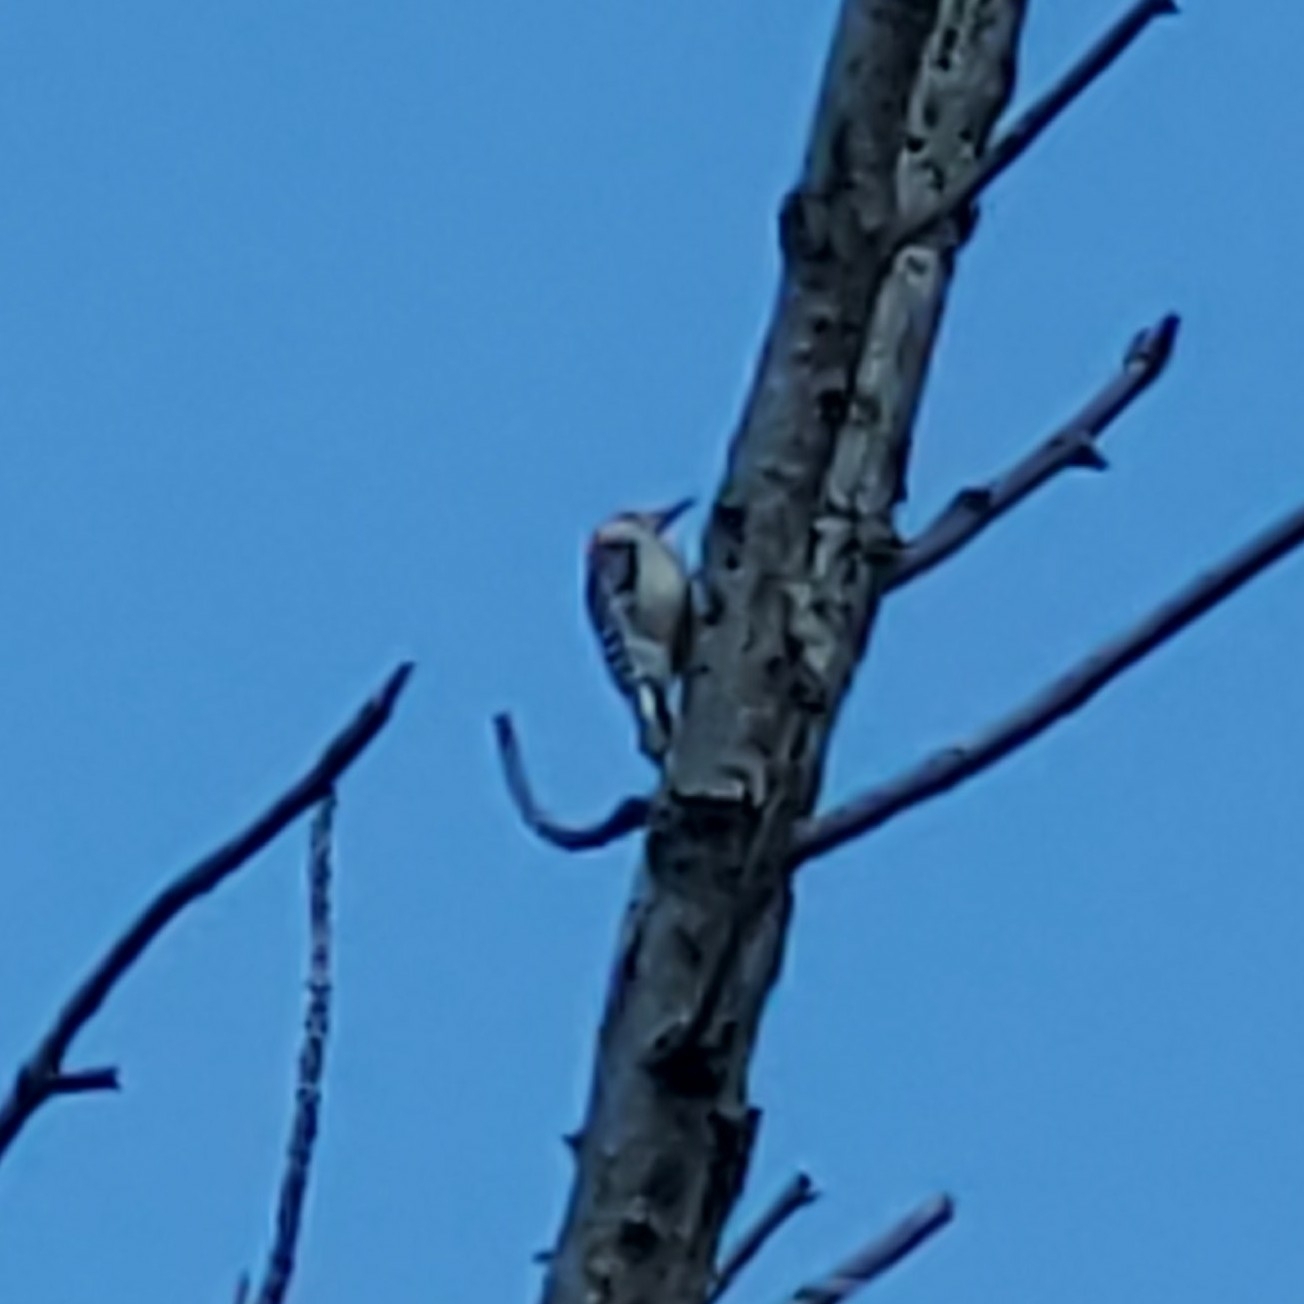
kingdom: Animalia
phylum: Chordata
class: Aves
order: Piciformes
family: Picidae
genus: Melanerpes
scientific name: Melanerpes carolinus
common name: Red-bellied woodpecker
